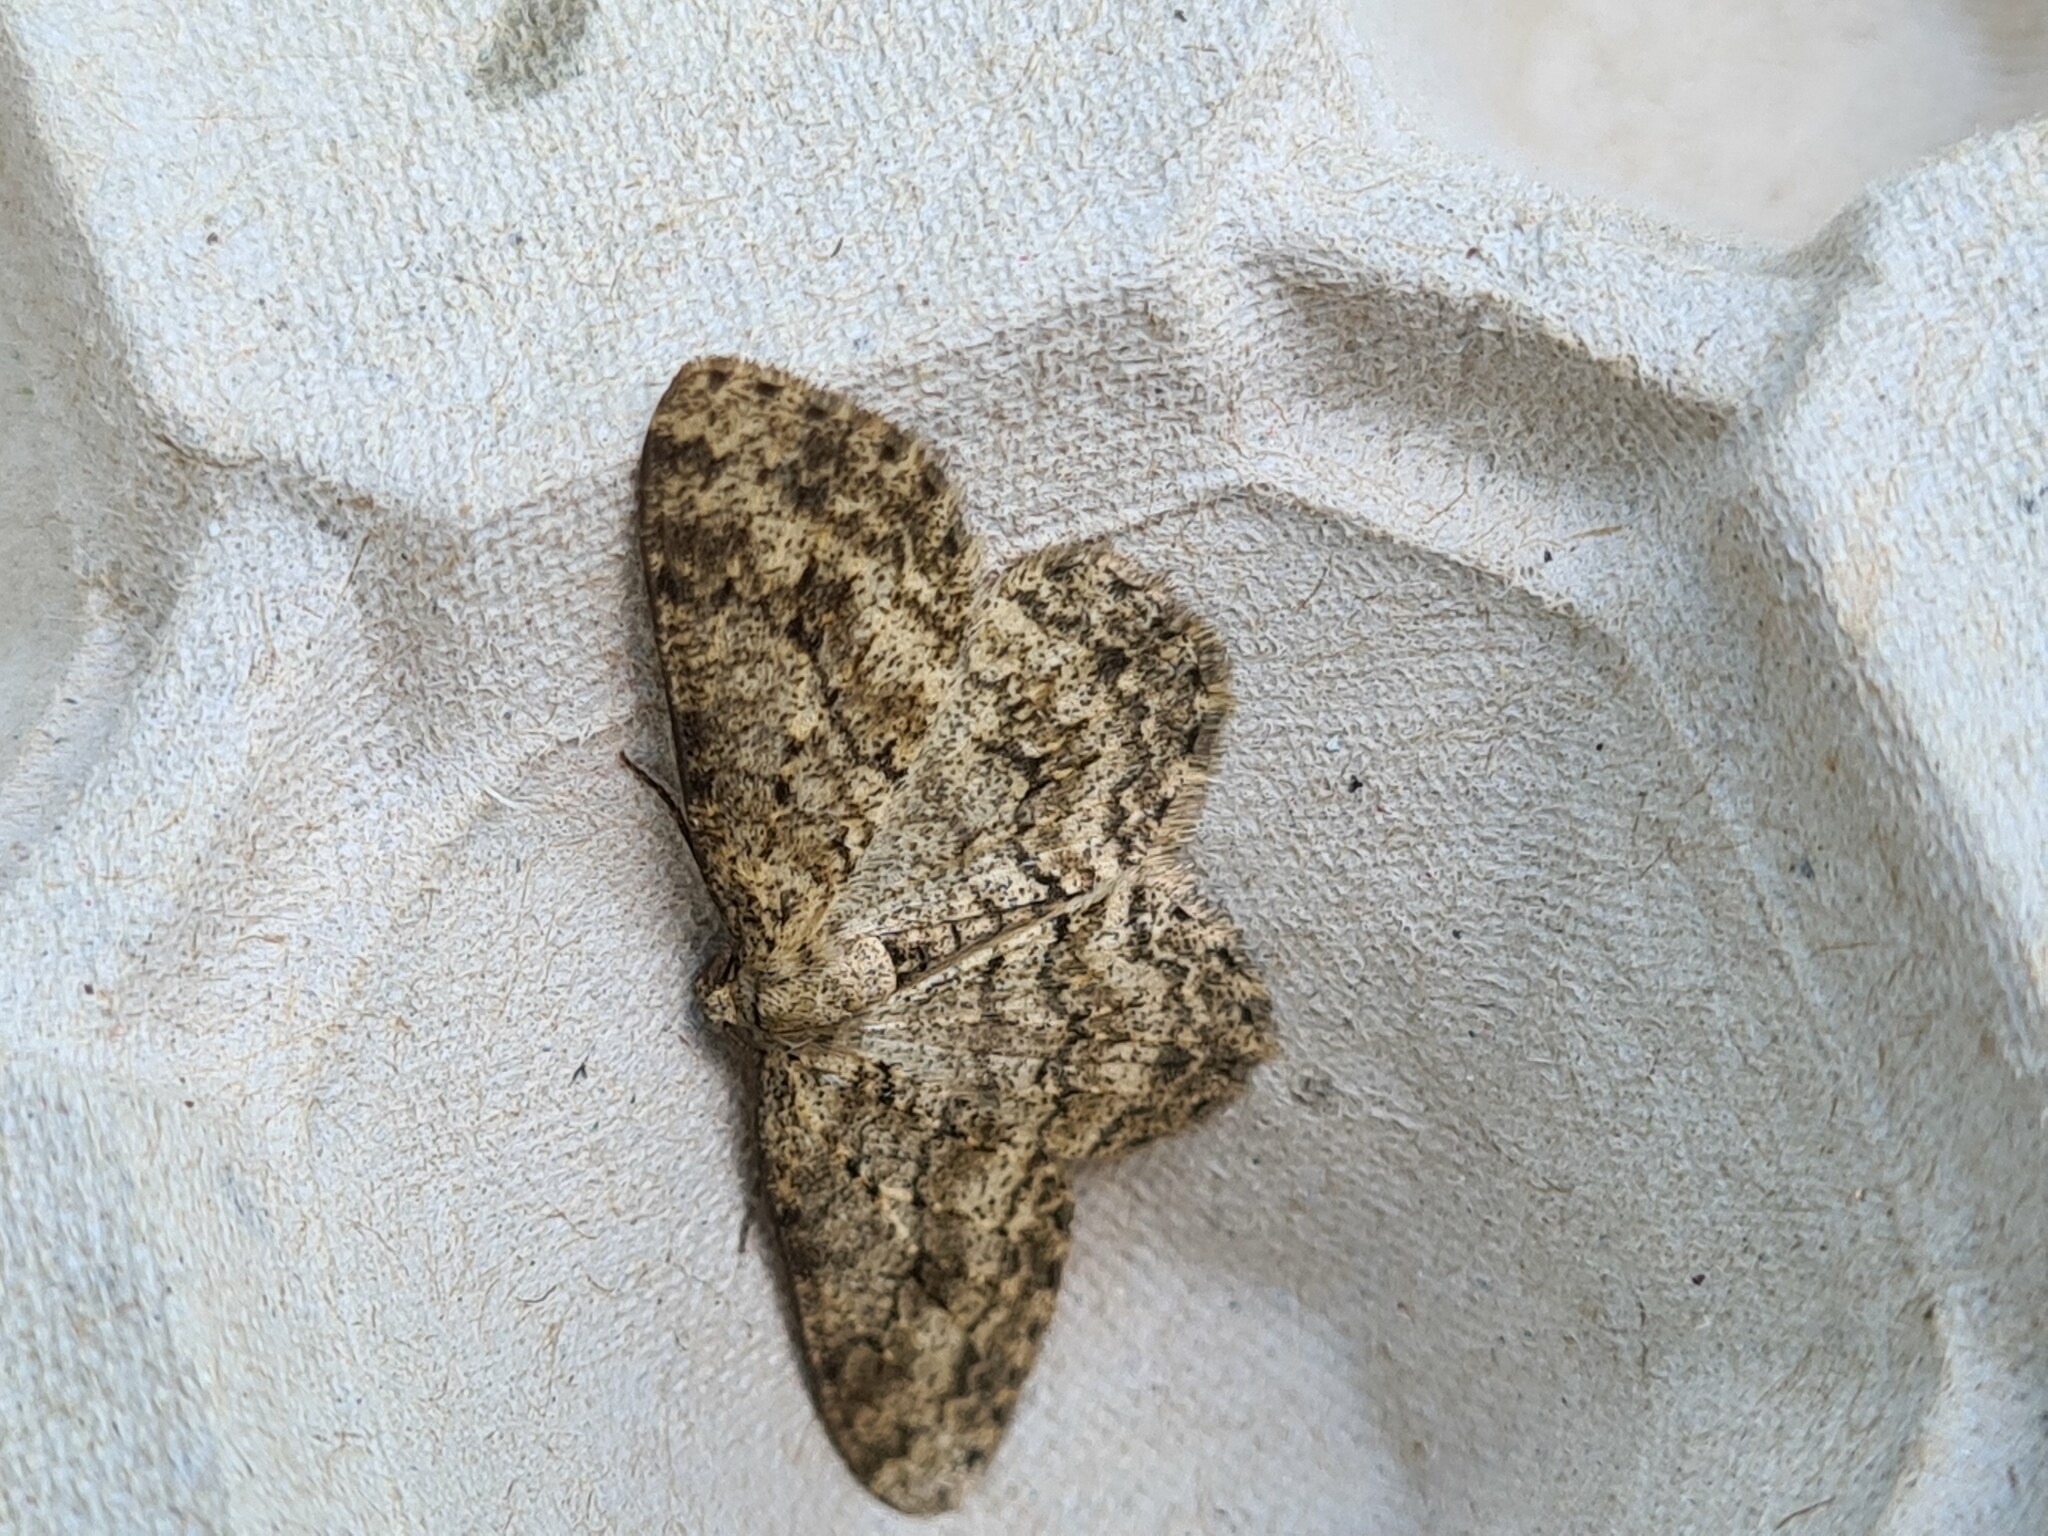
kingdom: Animalia
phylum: Arthropoda
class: Insecta
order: Lepidoptera
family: Geometridae
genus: Ectropis
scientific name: Ectropis crepuscularia
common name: Engrailed
